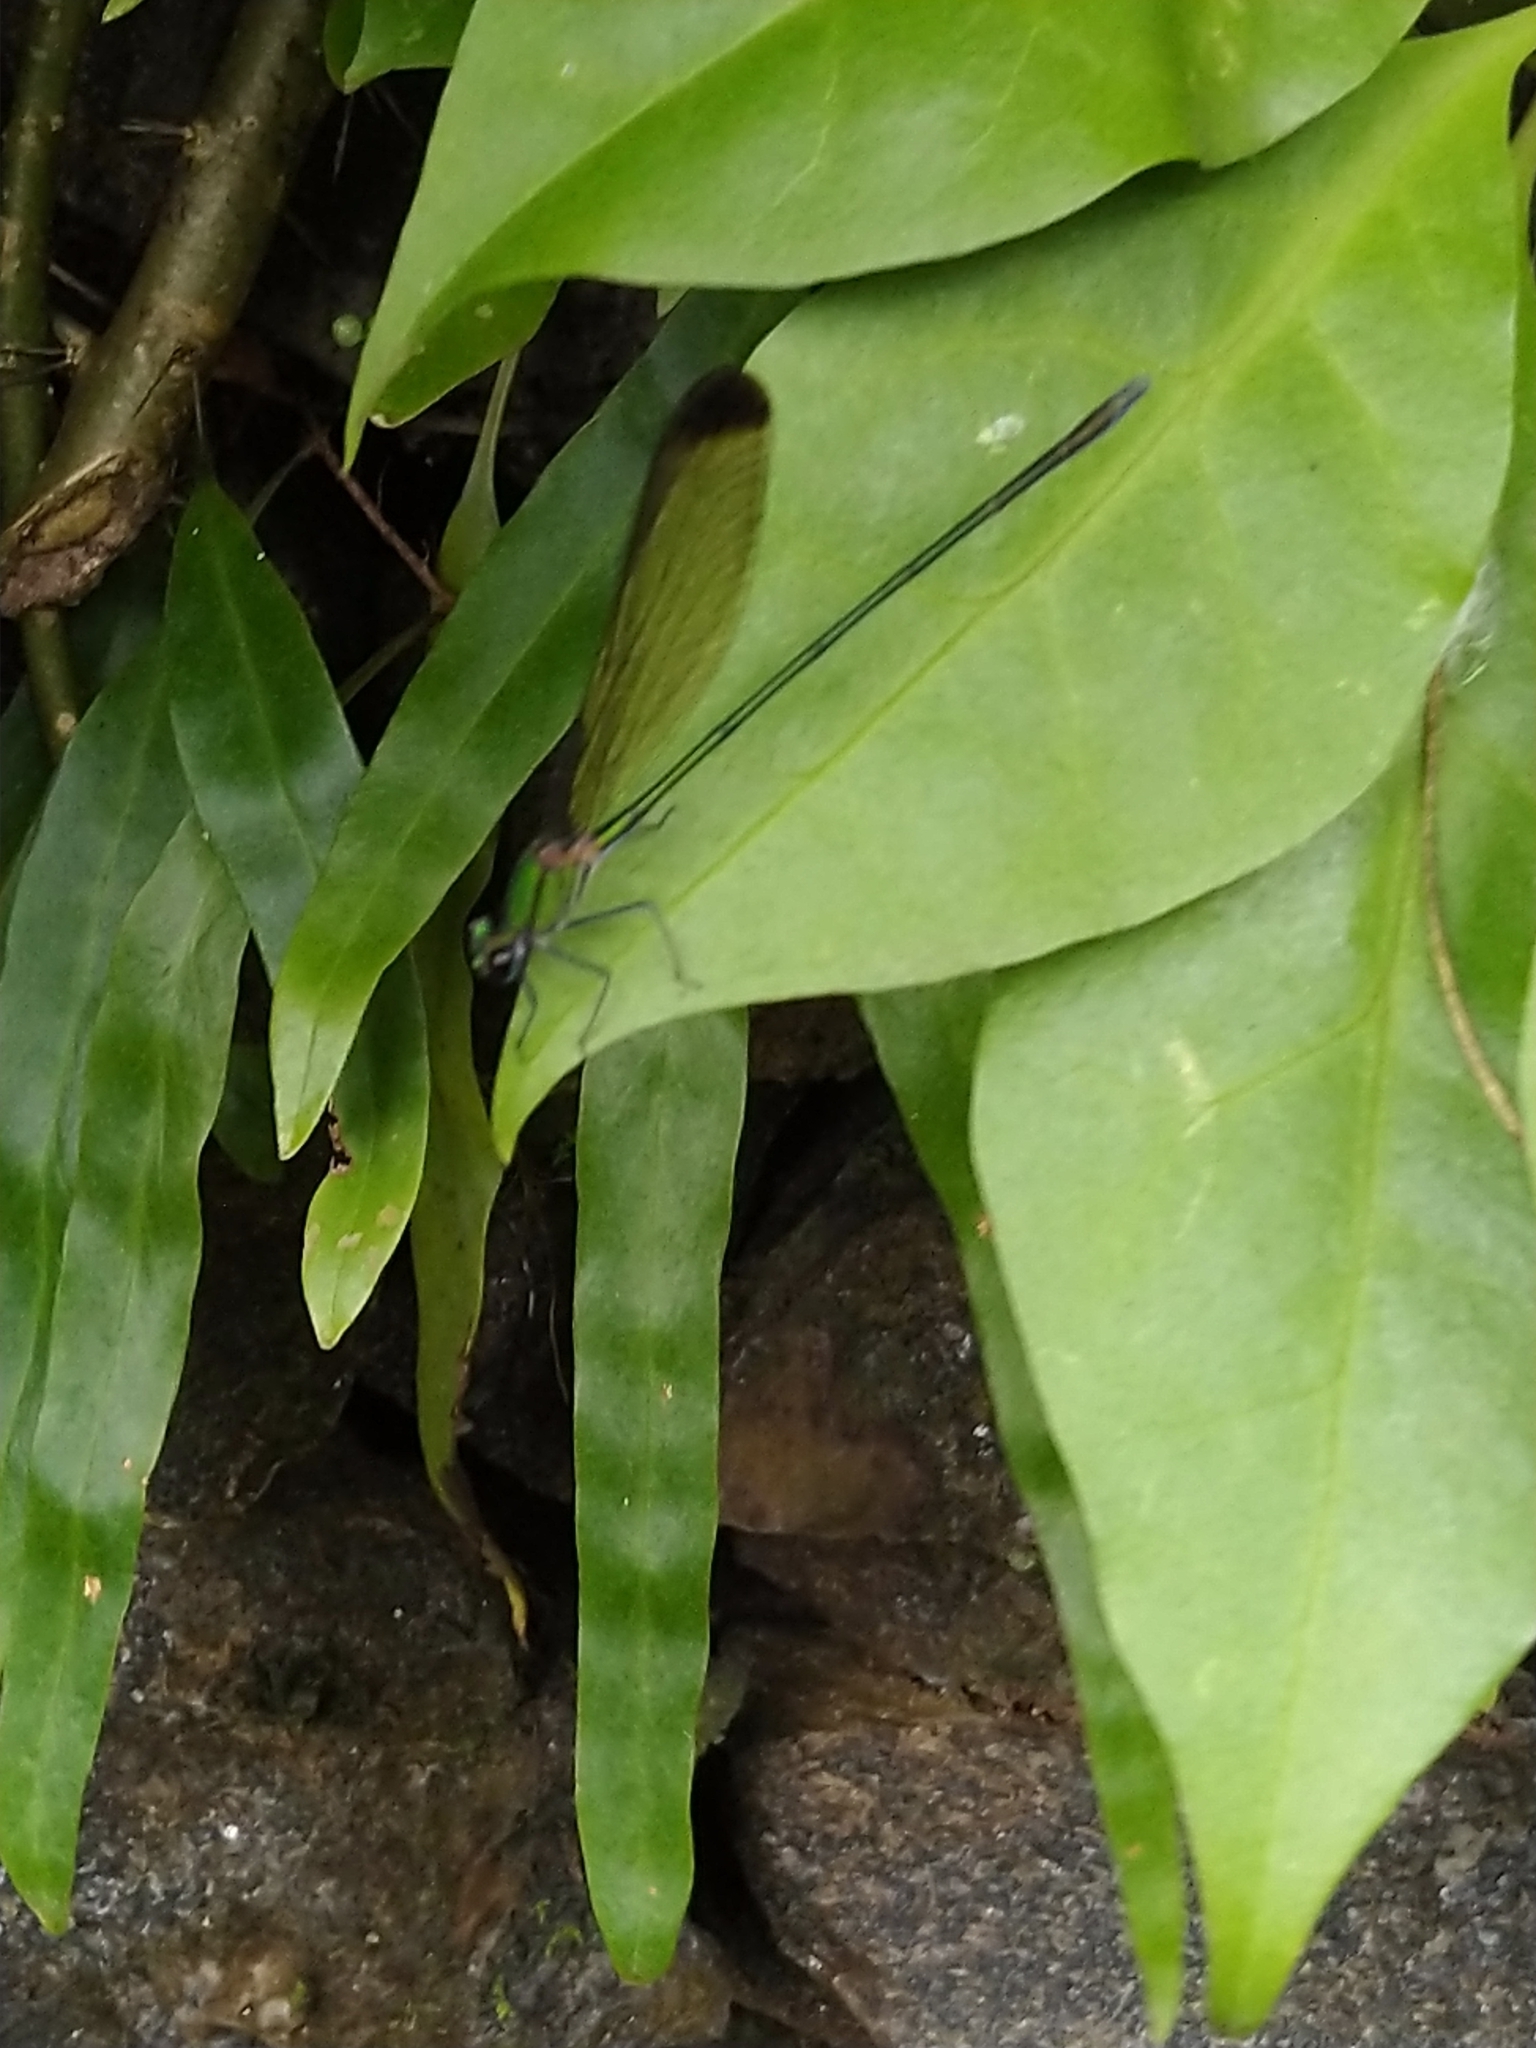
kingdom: Animalia
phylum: Arthropoda
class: Insecta
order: Odonata
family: Calopterygidae
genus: Vestalis
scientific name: Vestalis apicalis
